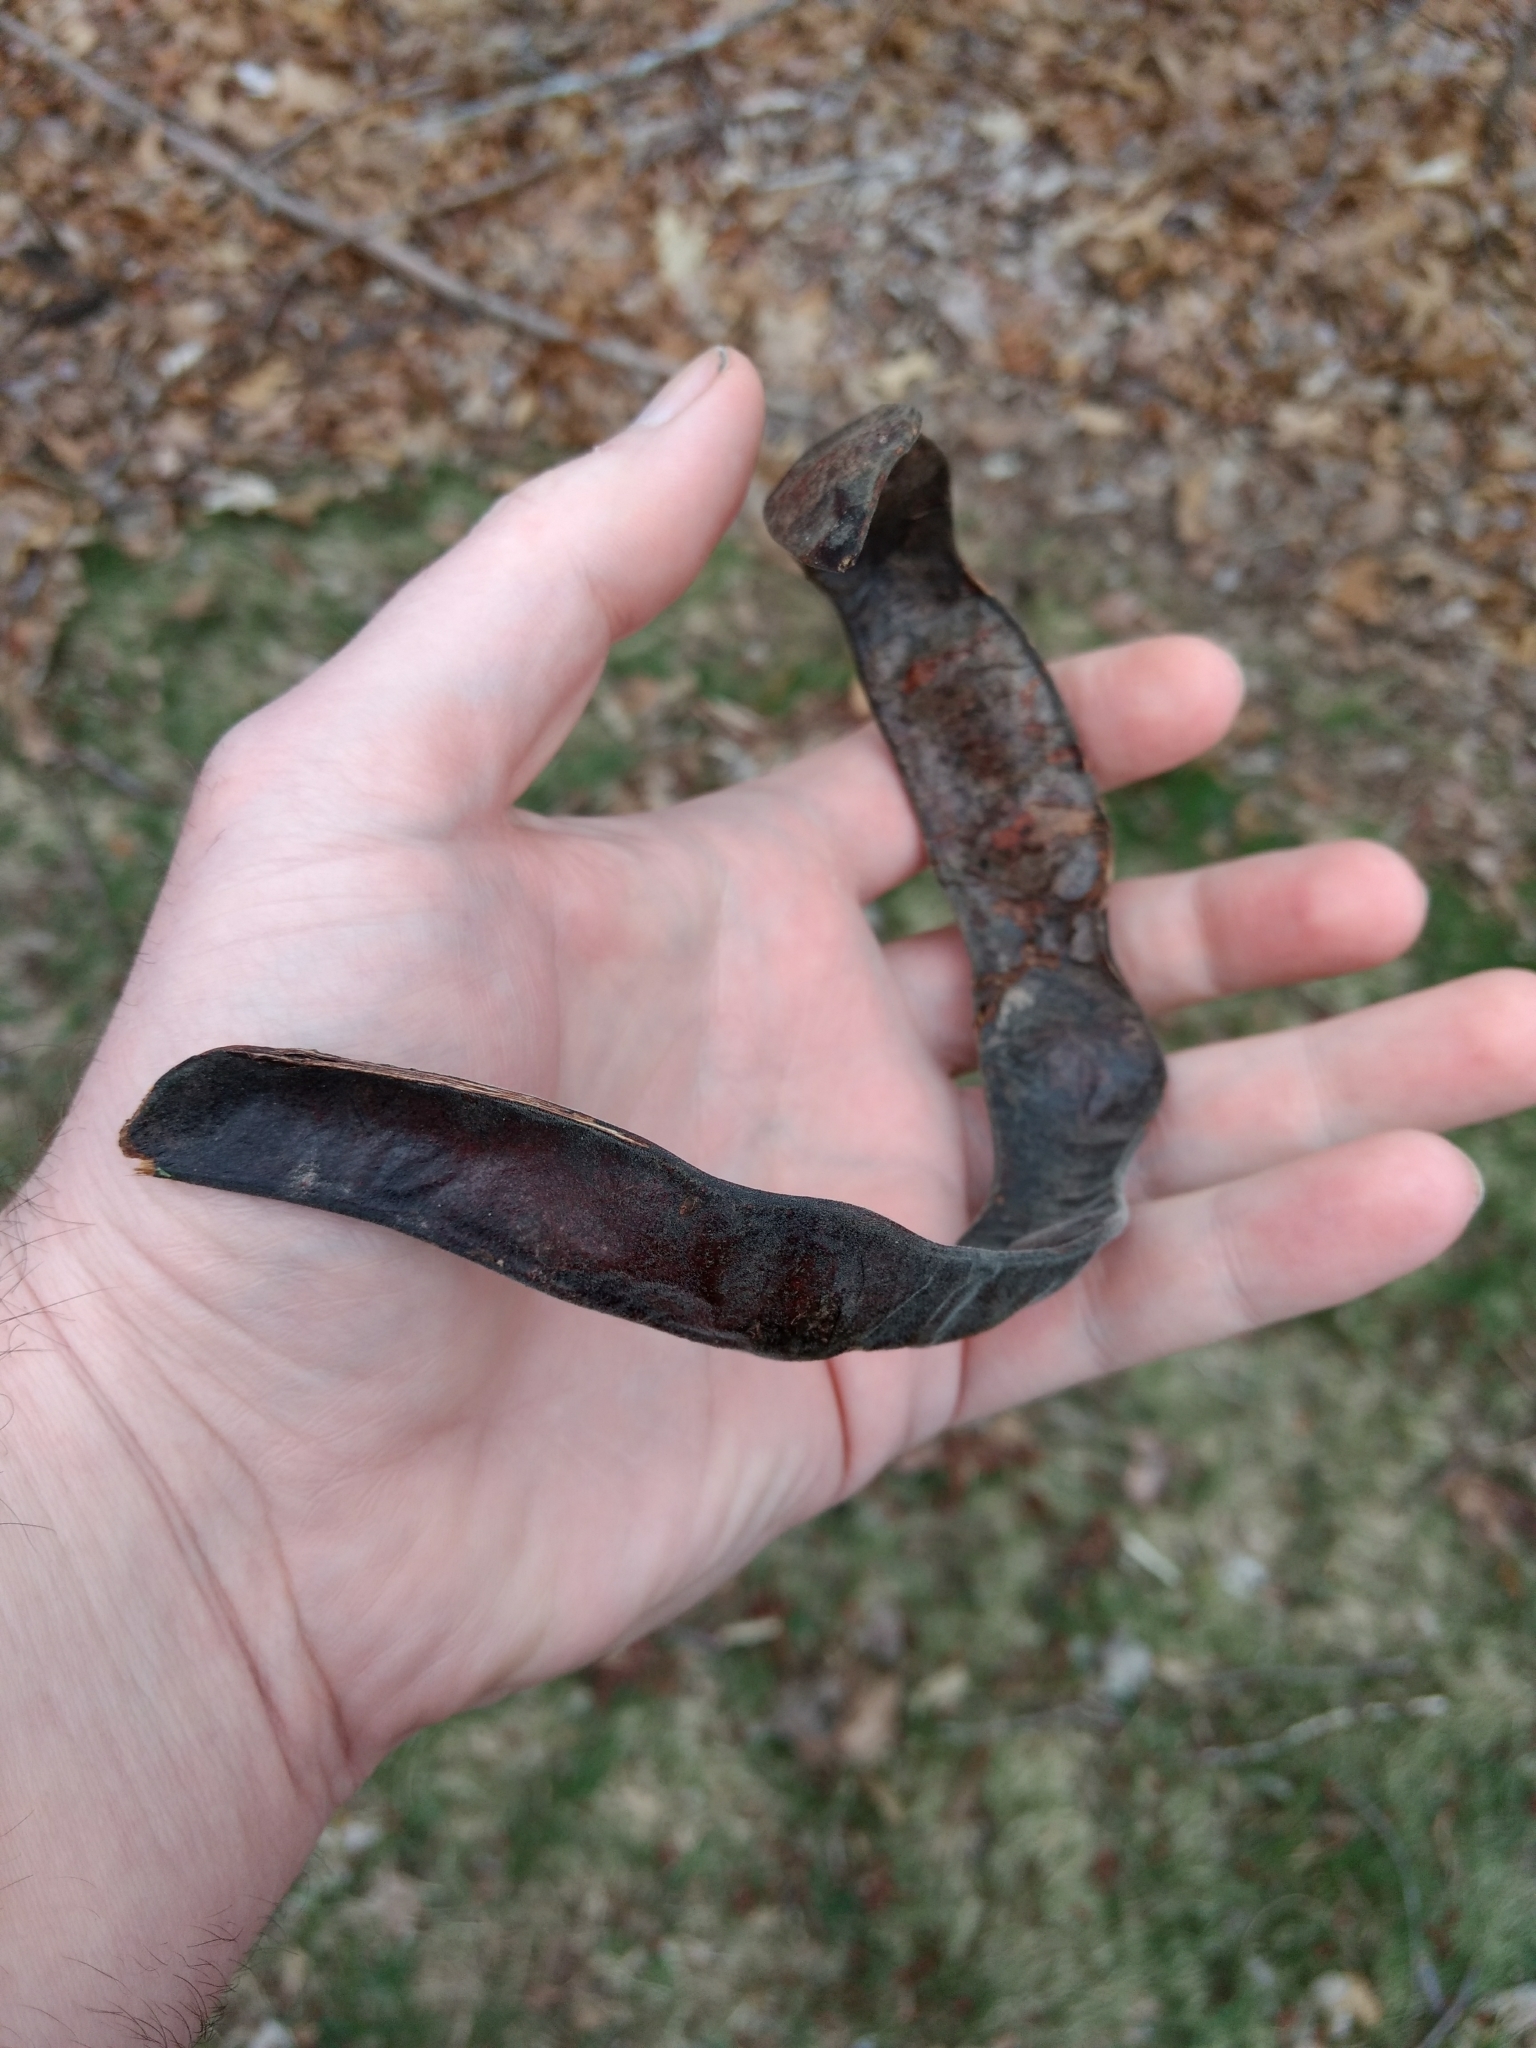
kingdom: Plantae
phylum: Tracheophyta
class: Magnoliopsida
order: Fabales
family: Fabaceae
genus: Gleditsia
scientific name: Gleditsia triacanthos
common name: Common honeylocust
